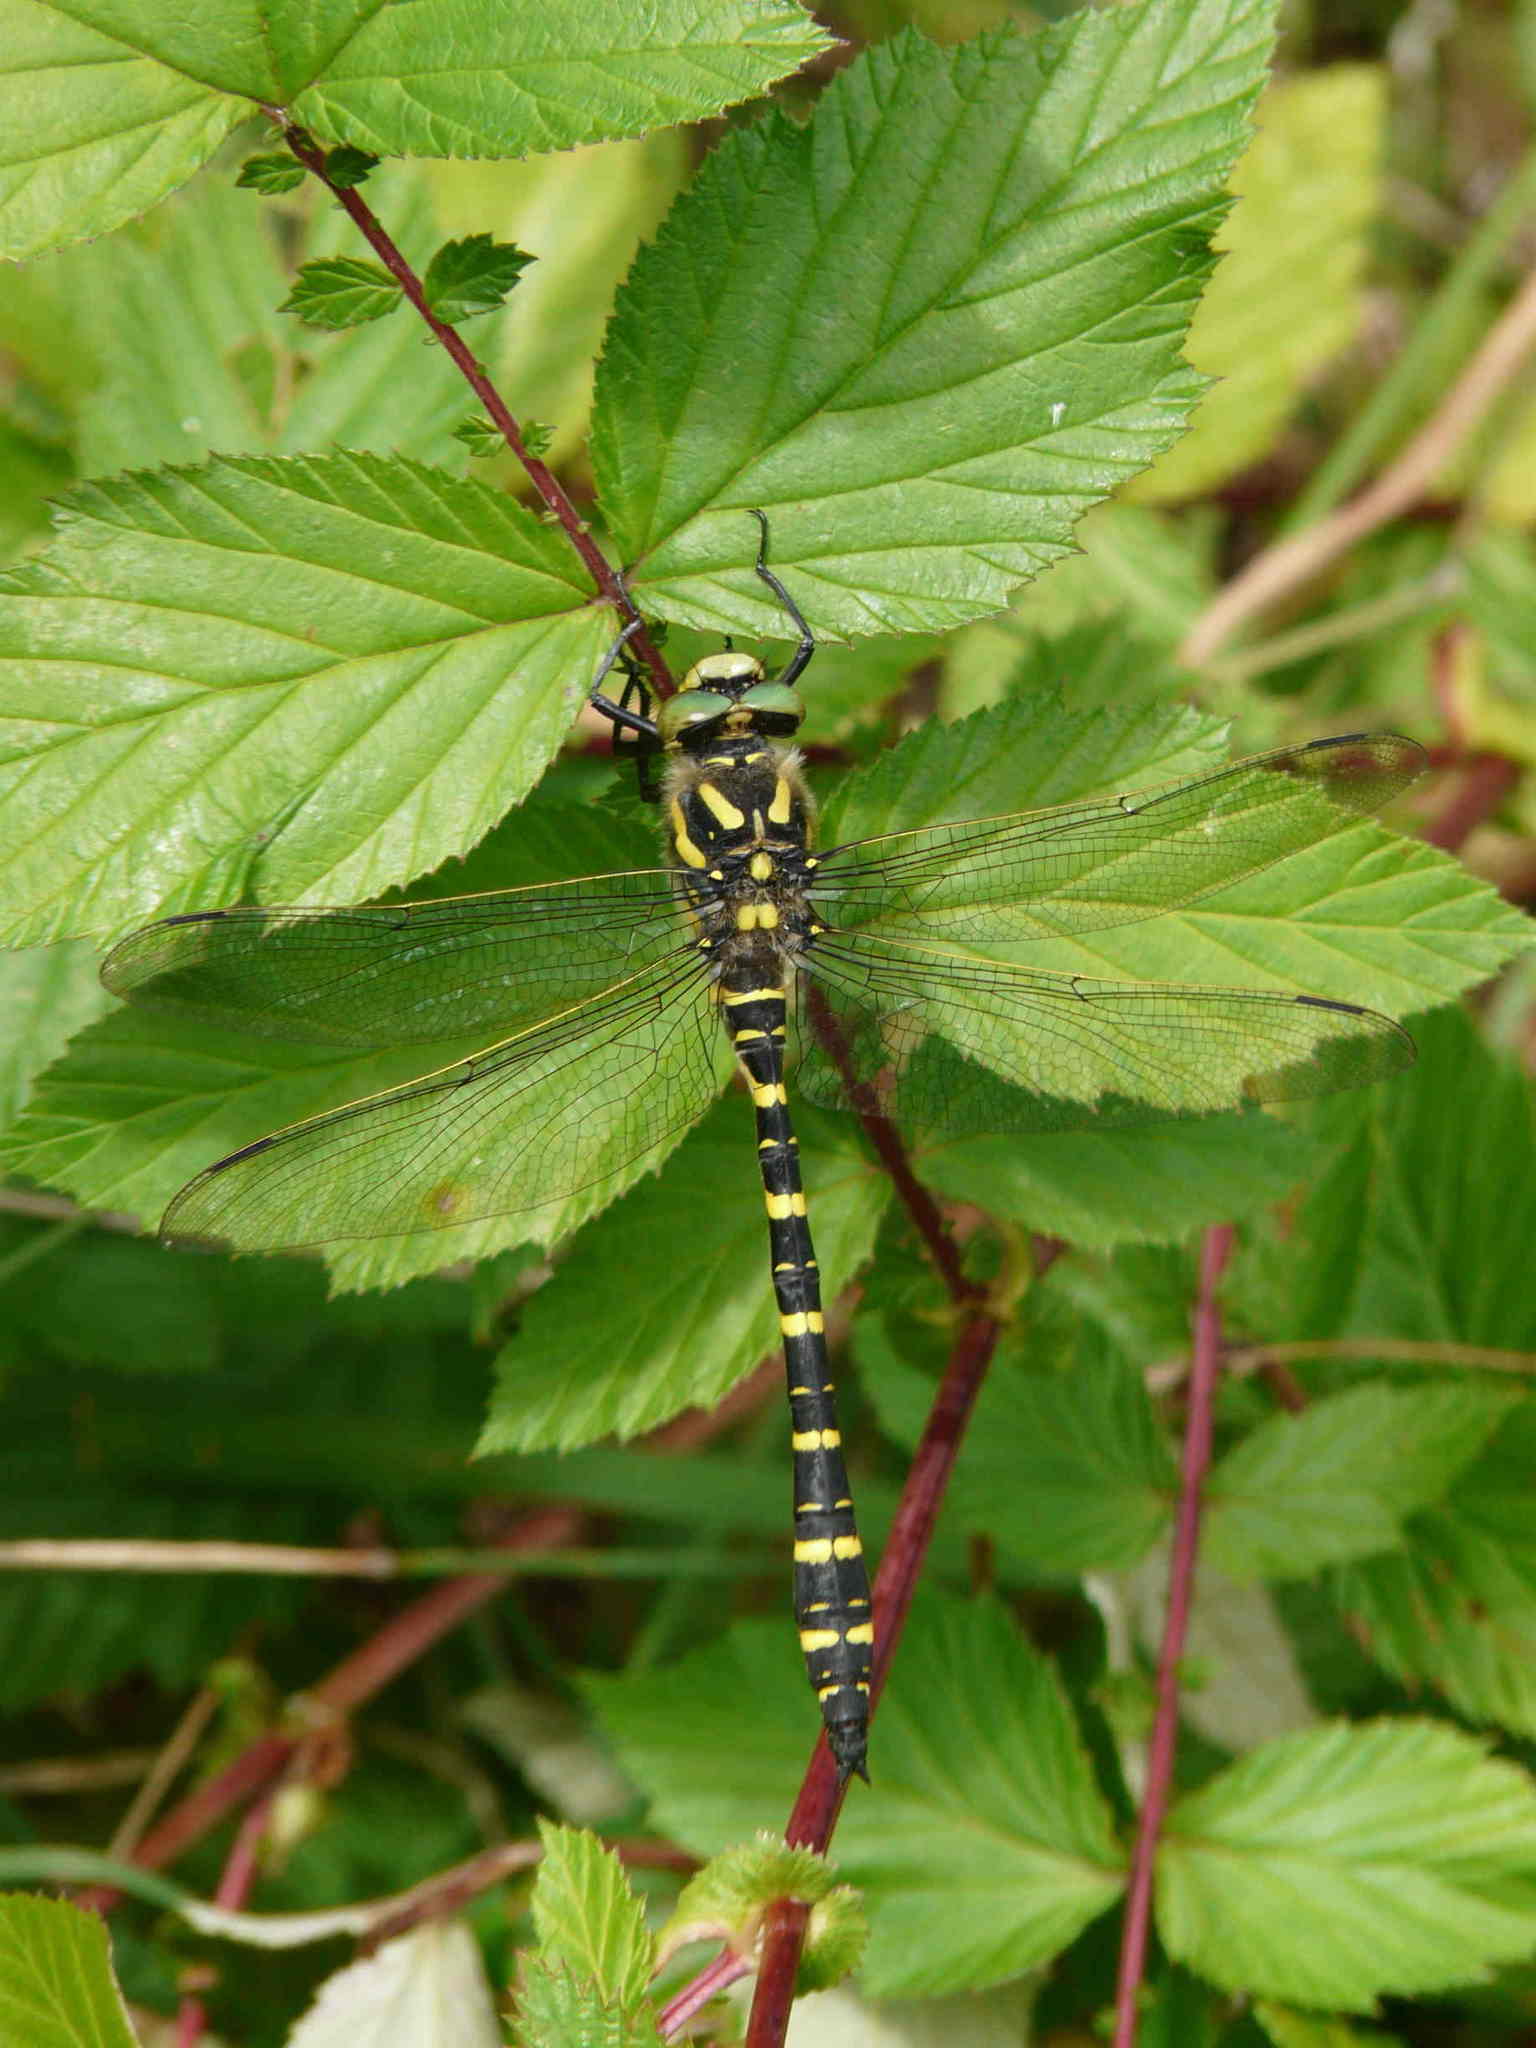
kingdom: Animalia
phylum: Arthropoda
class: Insecta
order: Odonata
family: Cordulegastridae
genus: Cordulegaster
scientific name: Cordulegaster boltonii
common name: Golden-ringed dragonfly
